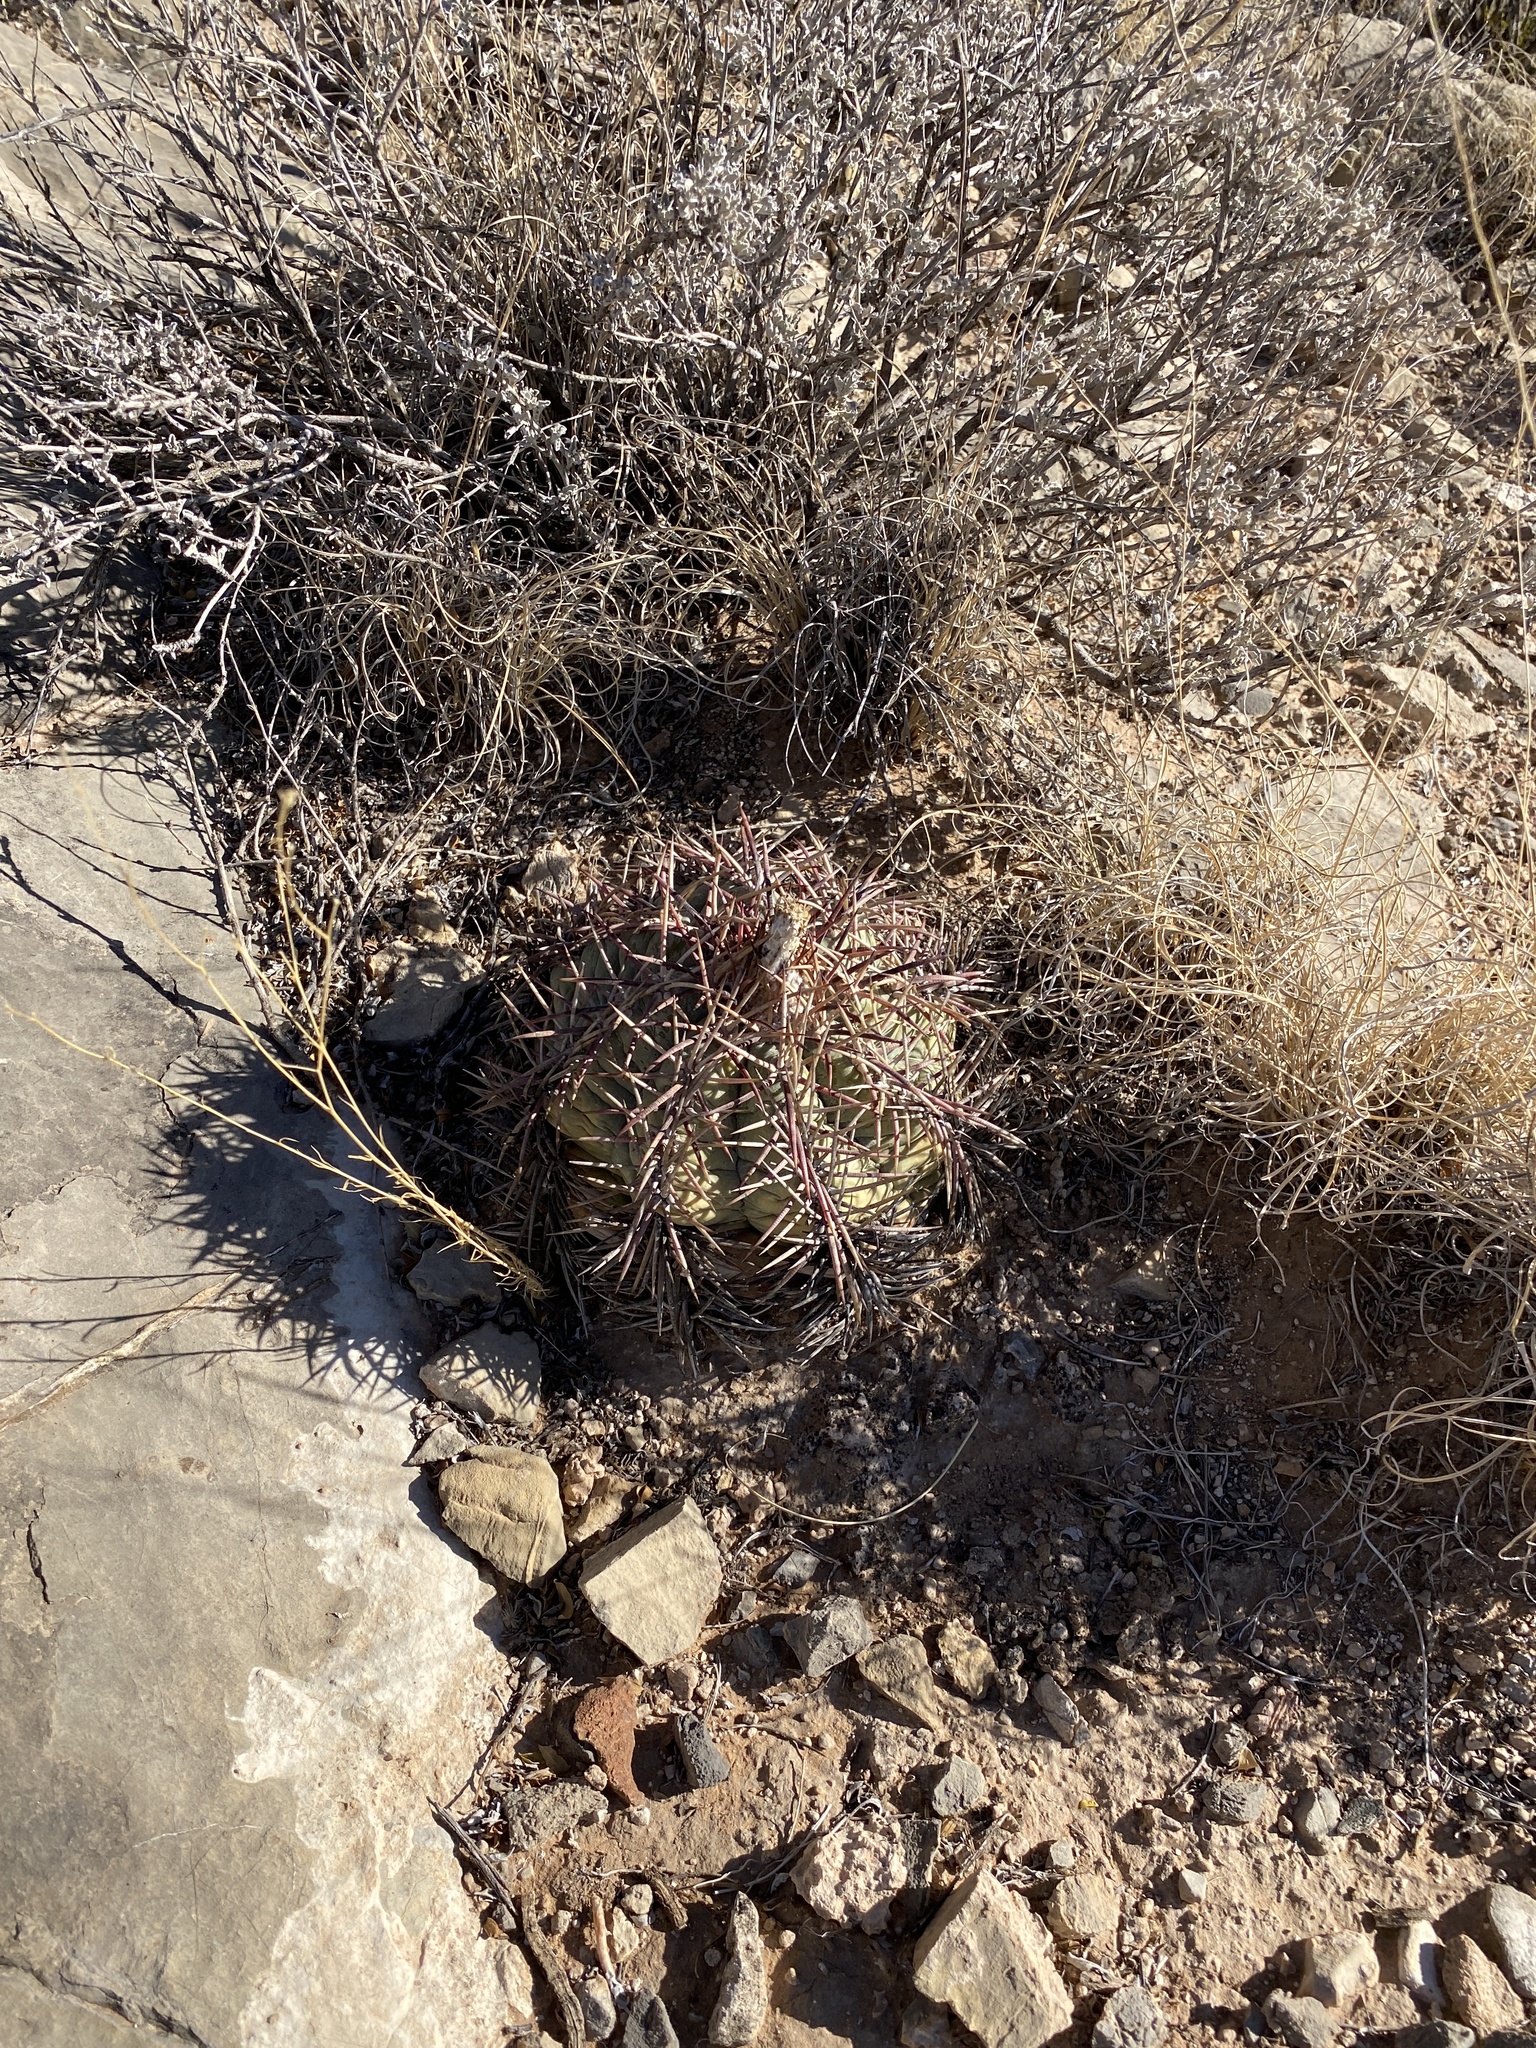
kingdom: Plantae
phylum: Tracheophyta
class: Magnoliopsida
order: Caryophyllales
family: Cactaceae
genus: Echinocactus
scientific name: Echinocactus horizonthalonius
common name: Devilshead
